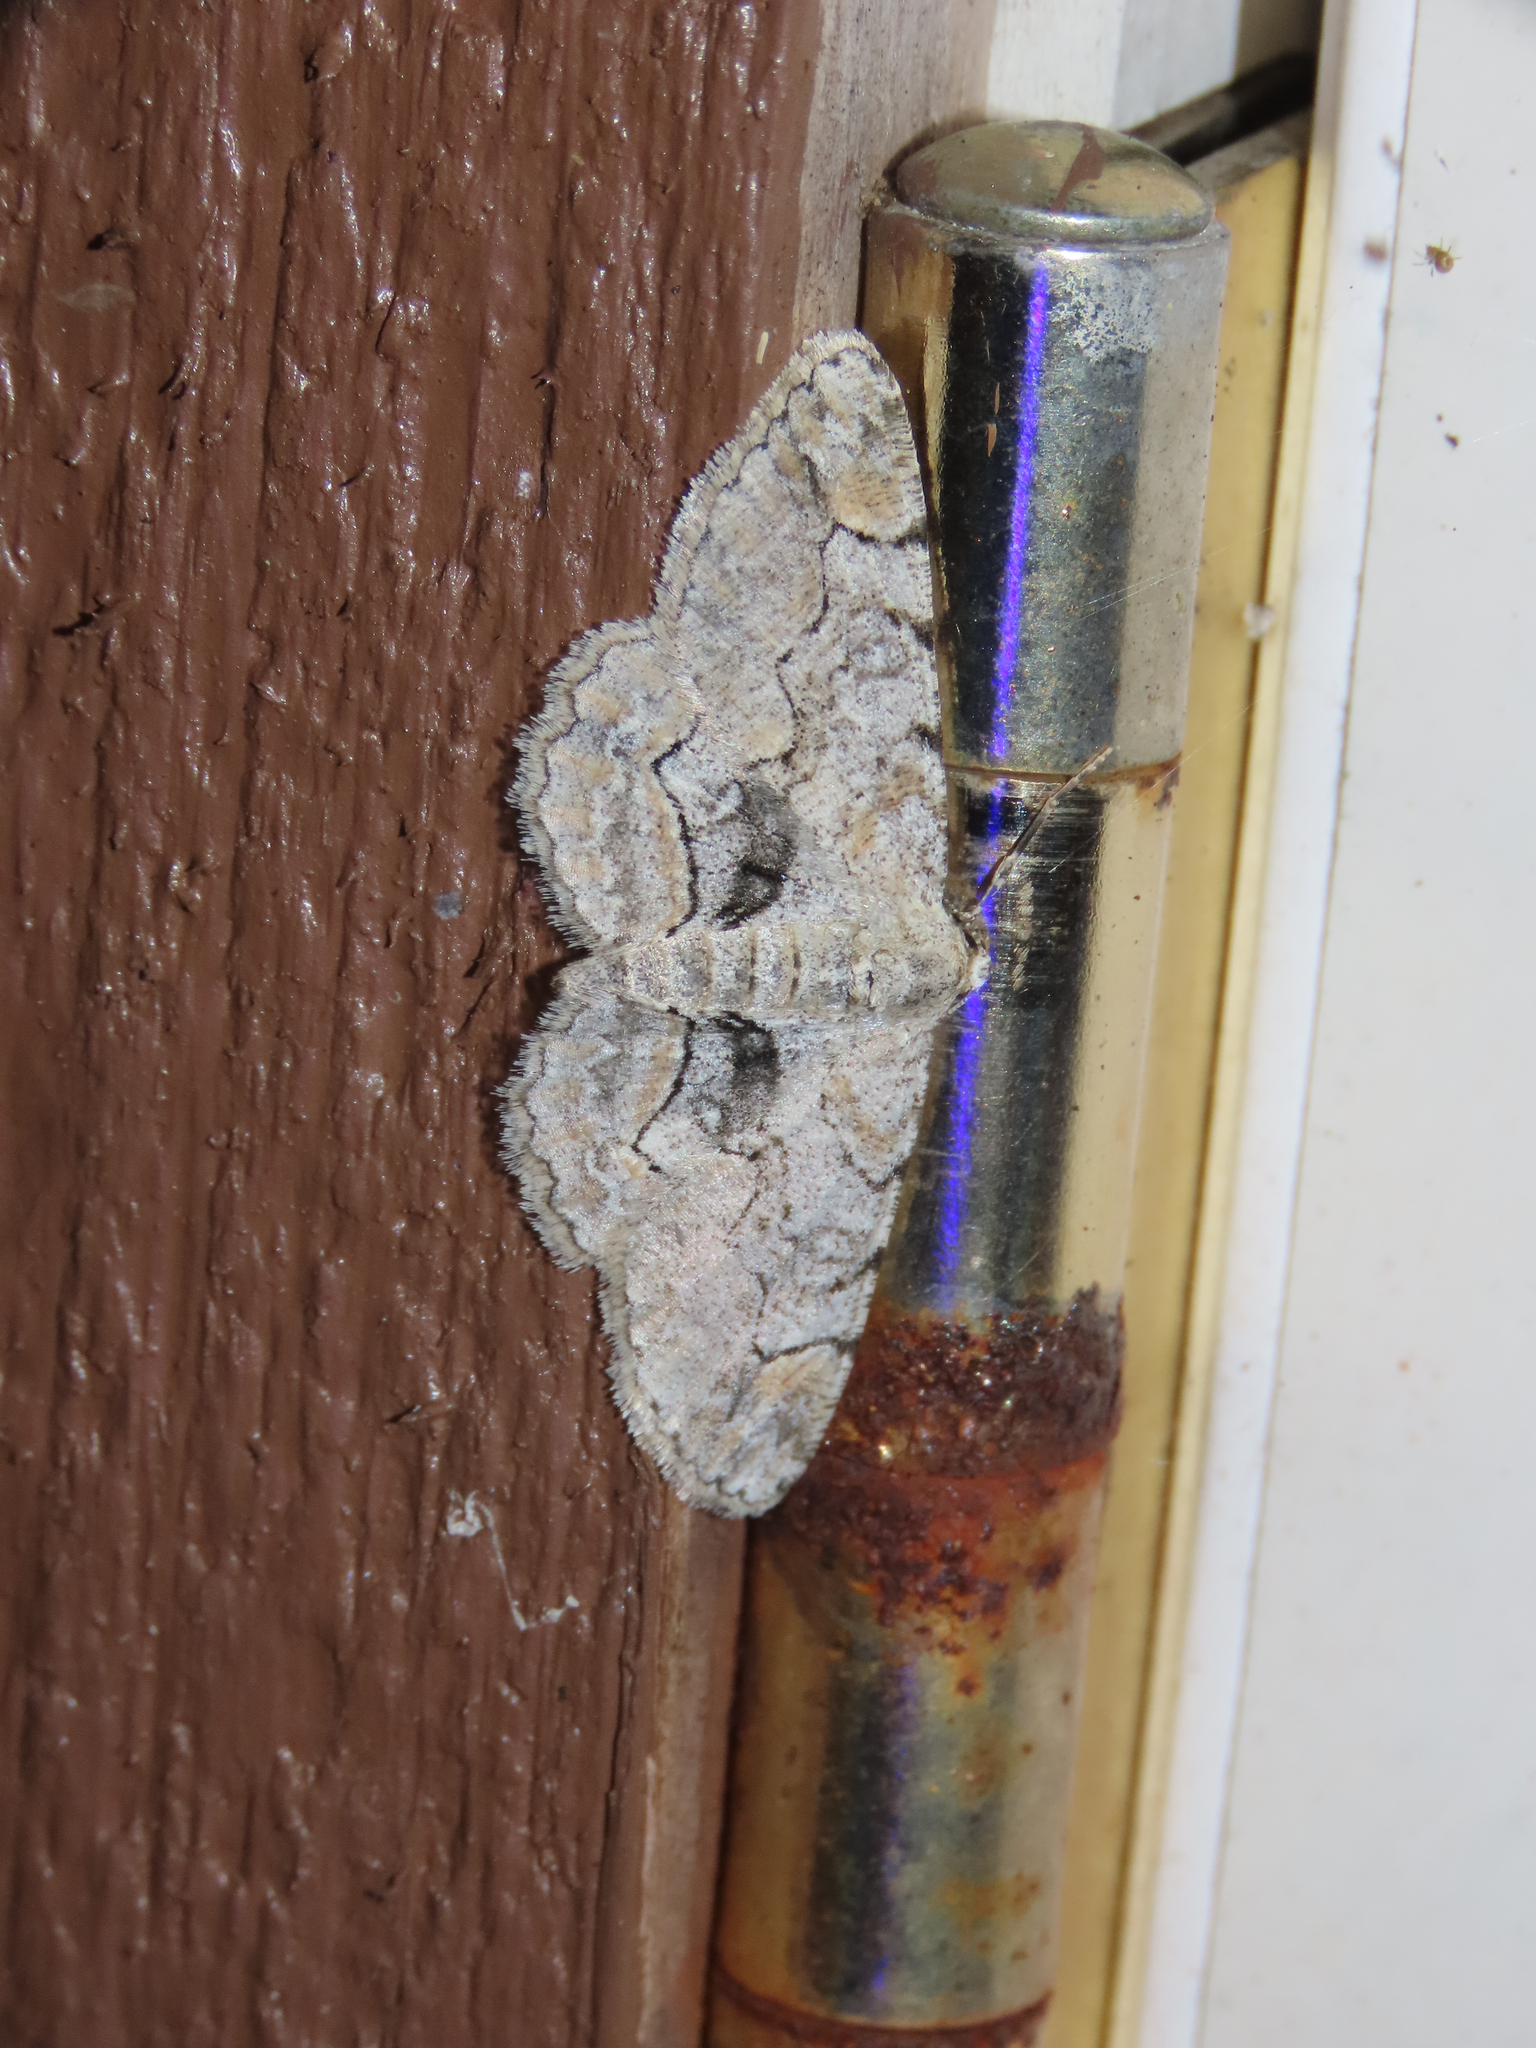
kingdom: Animalia
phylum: Arthropoda
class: Insecta
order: Lepidoptera
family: Geometridae
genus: Iridopsis
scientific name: Iridopsis larvaria
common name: Bent-line gray
